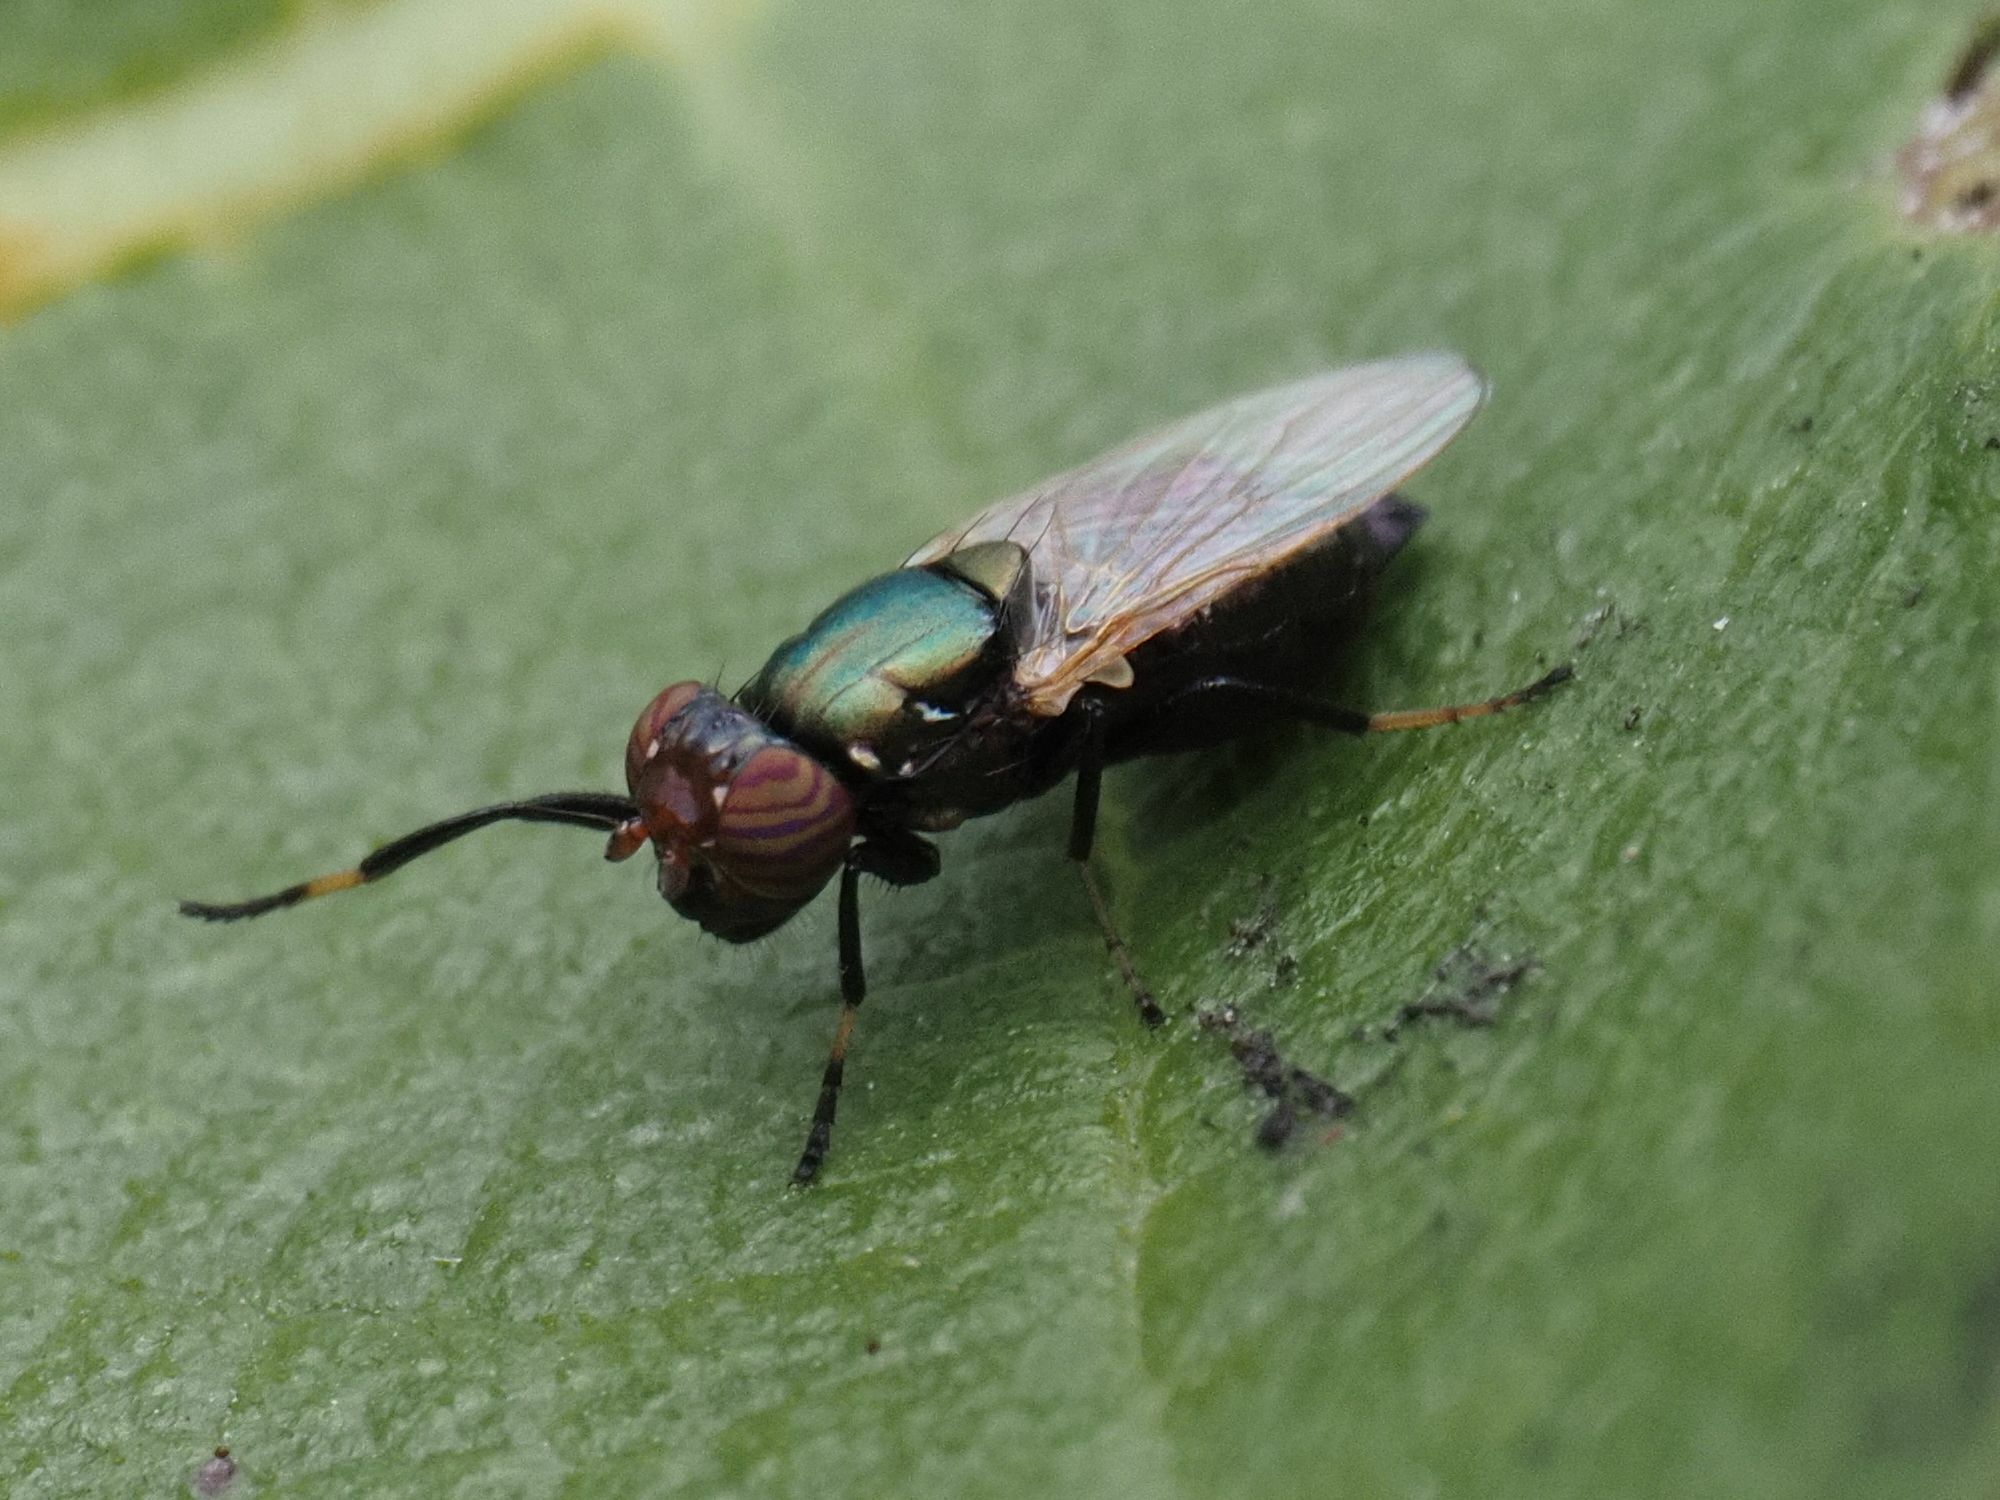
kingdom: Animalia
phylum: Arthropoda
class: Insecta
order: Diptera
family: Ulidiidae
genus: Physiphora
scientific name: Physiphora alceae
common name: Picture-winged fly
